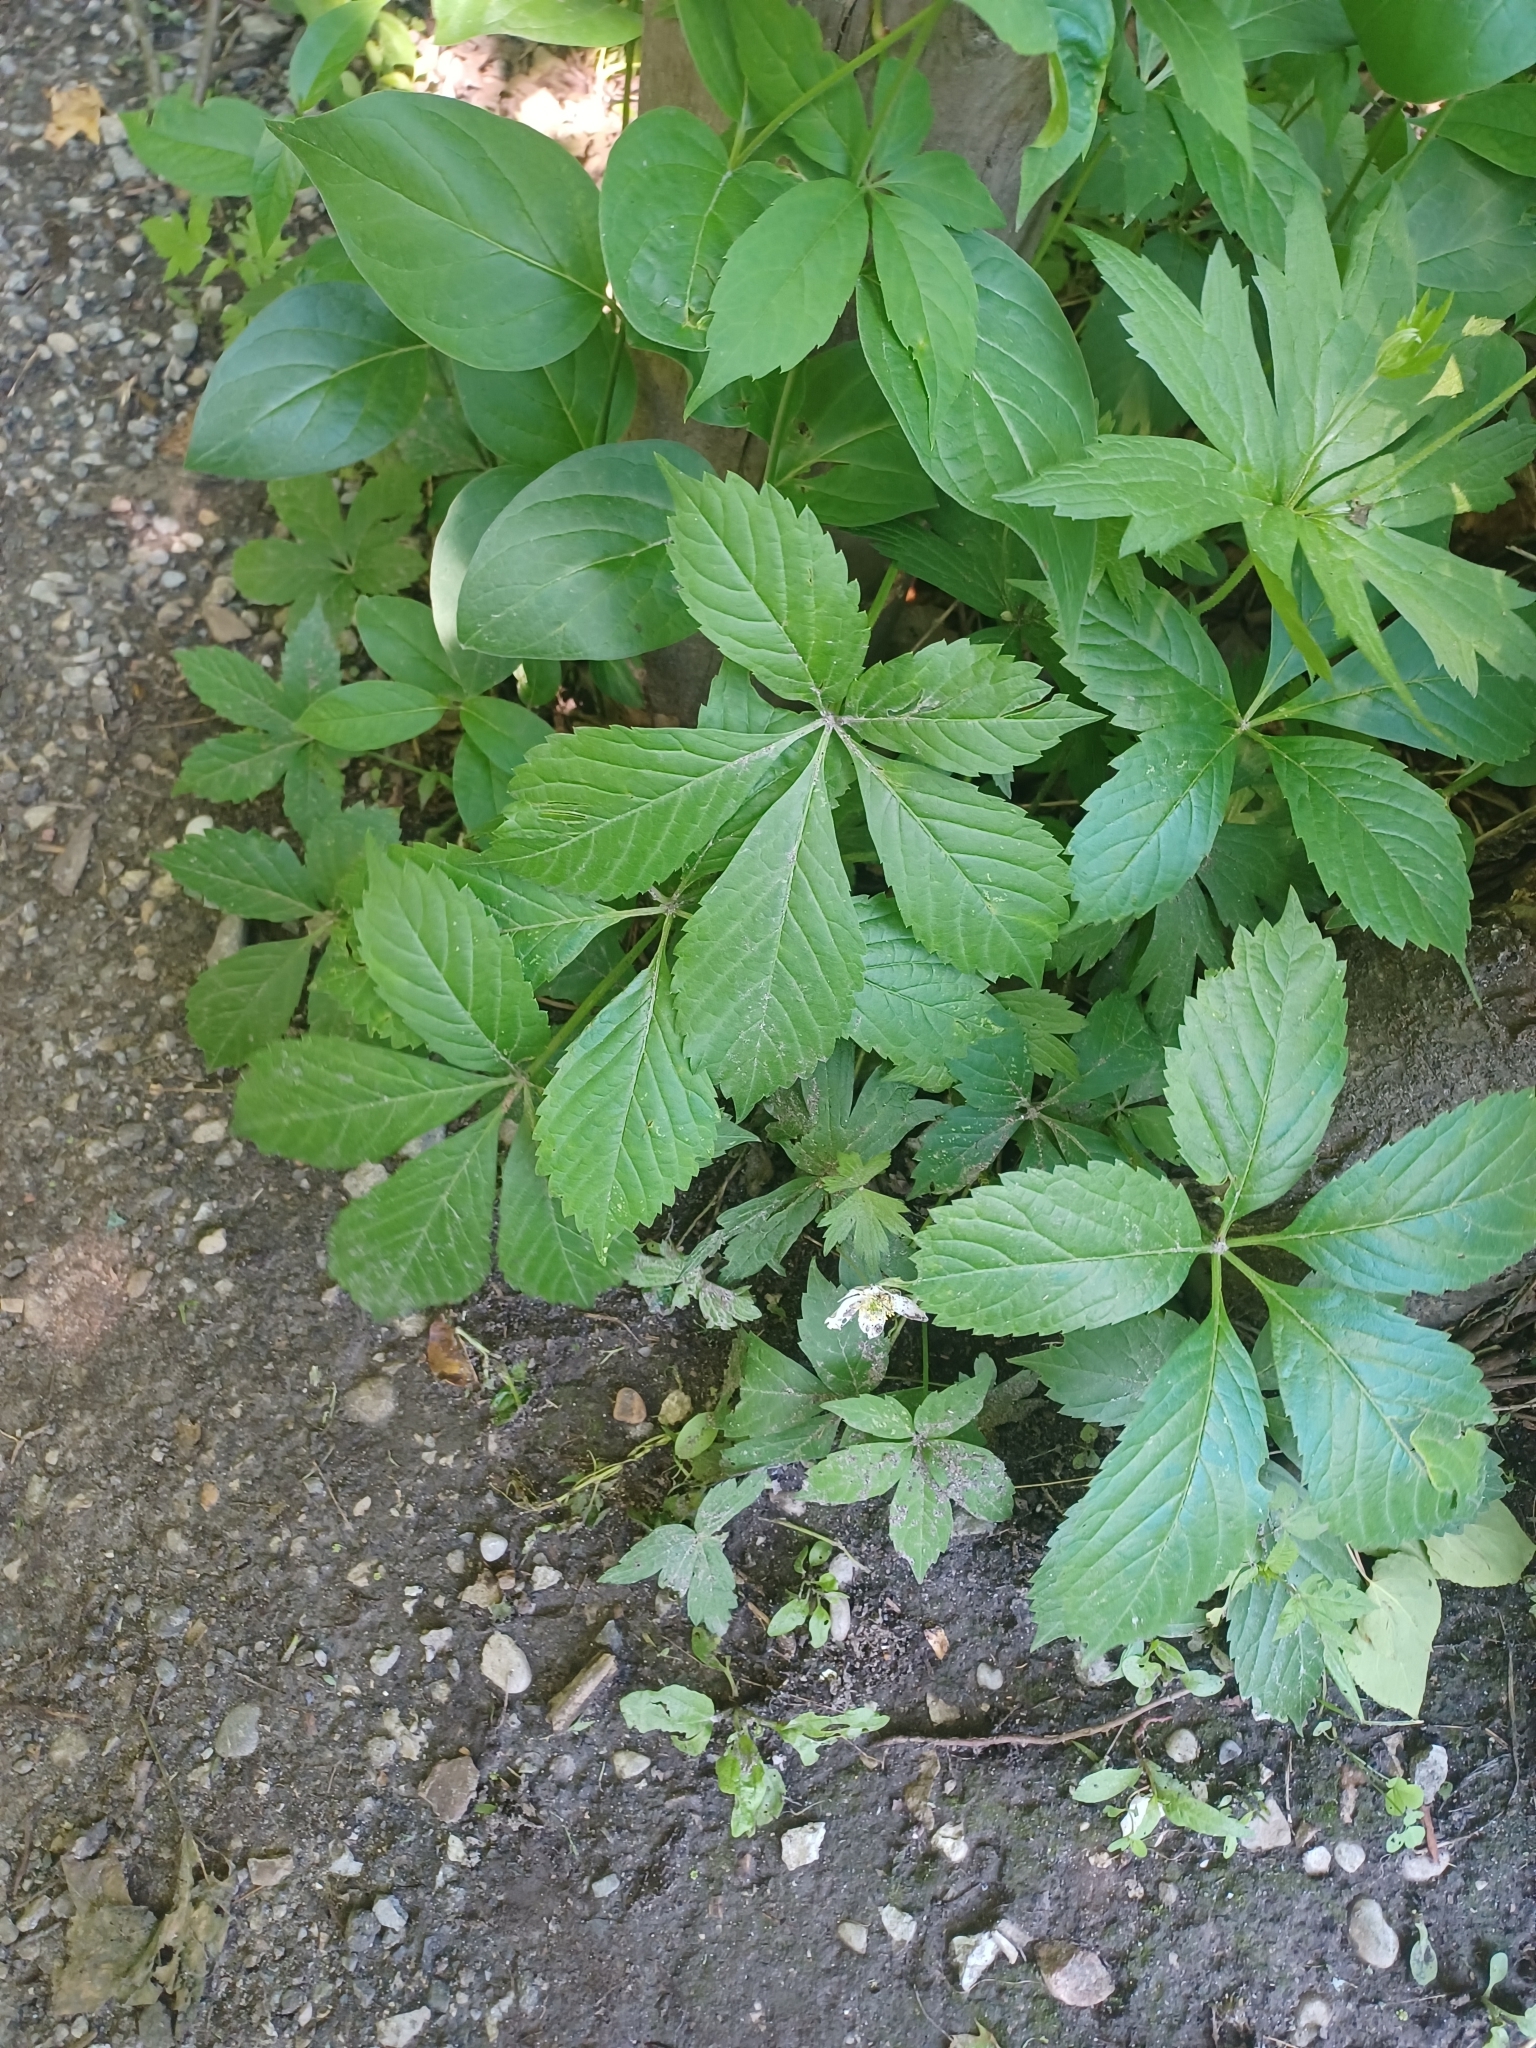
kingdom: Plantae
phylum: Tracheophyta
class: Magnoliopsida
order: Vitales
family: Vitaceae
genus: Parthenocissus
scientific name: Parthenocissus inserta
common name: False virginia-creeper
